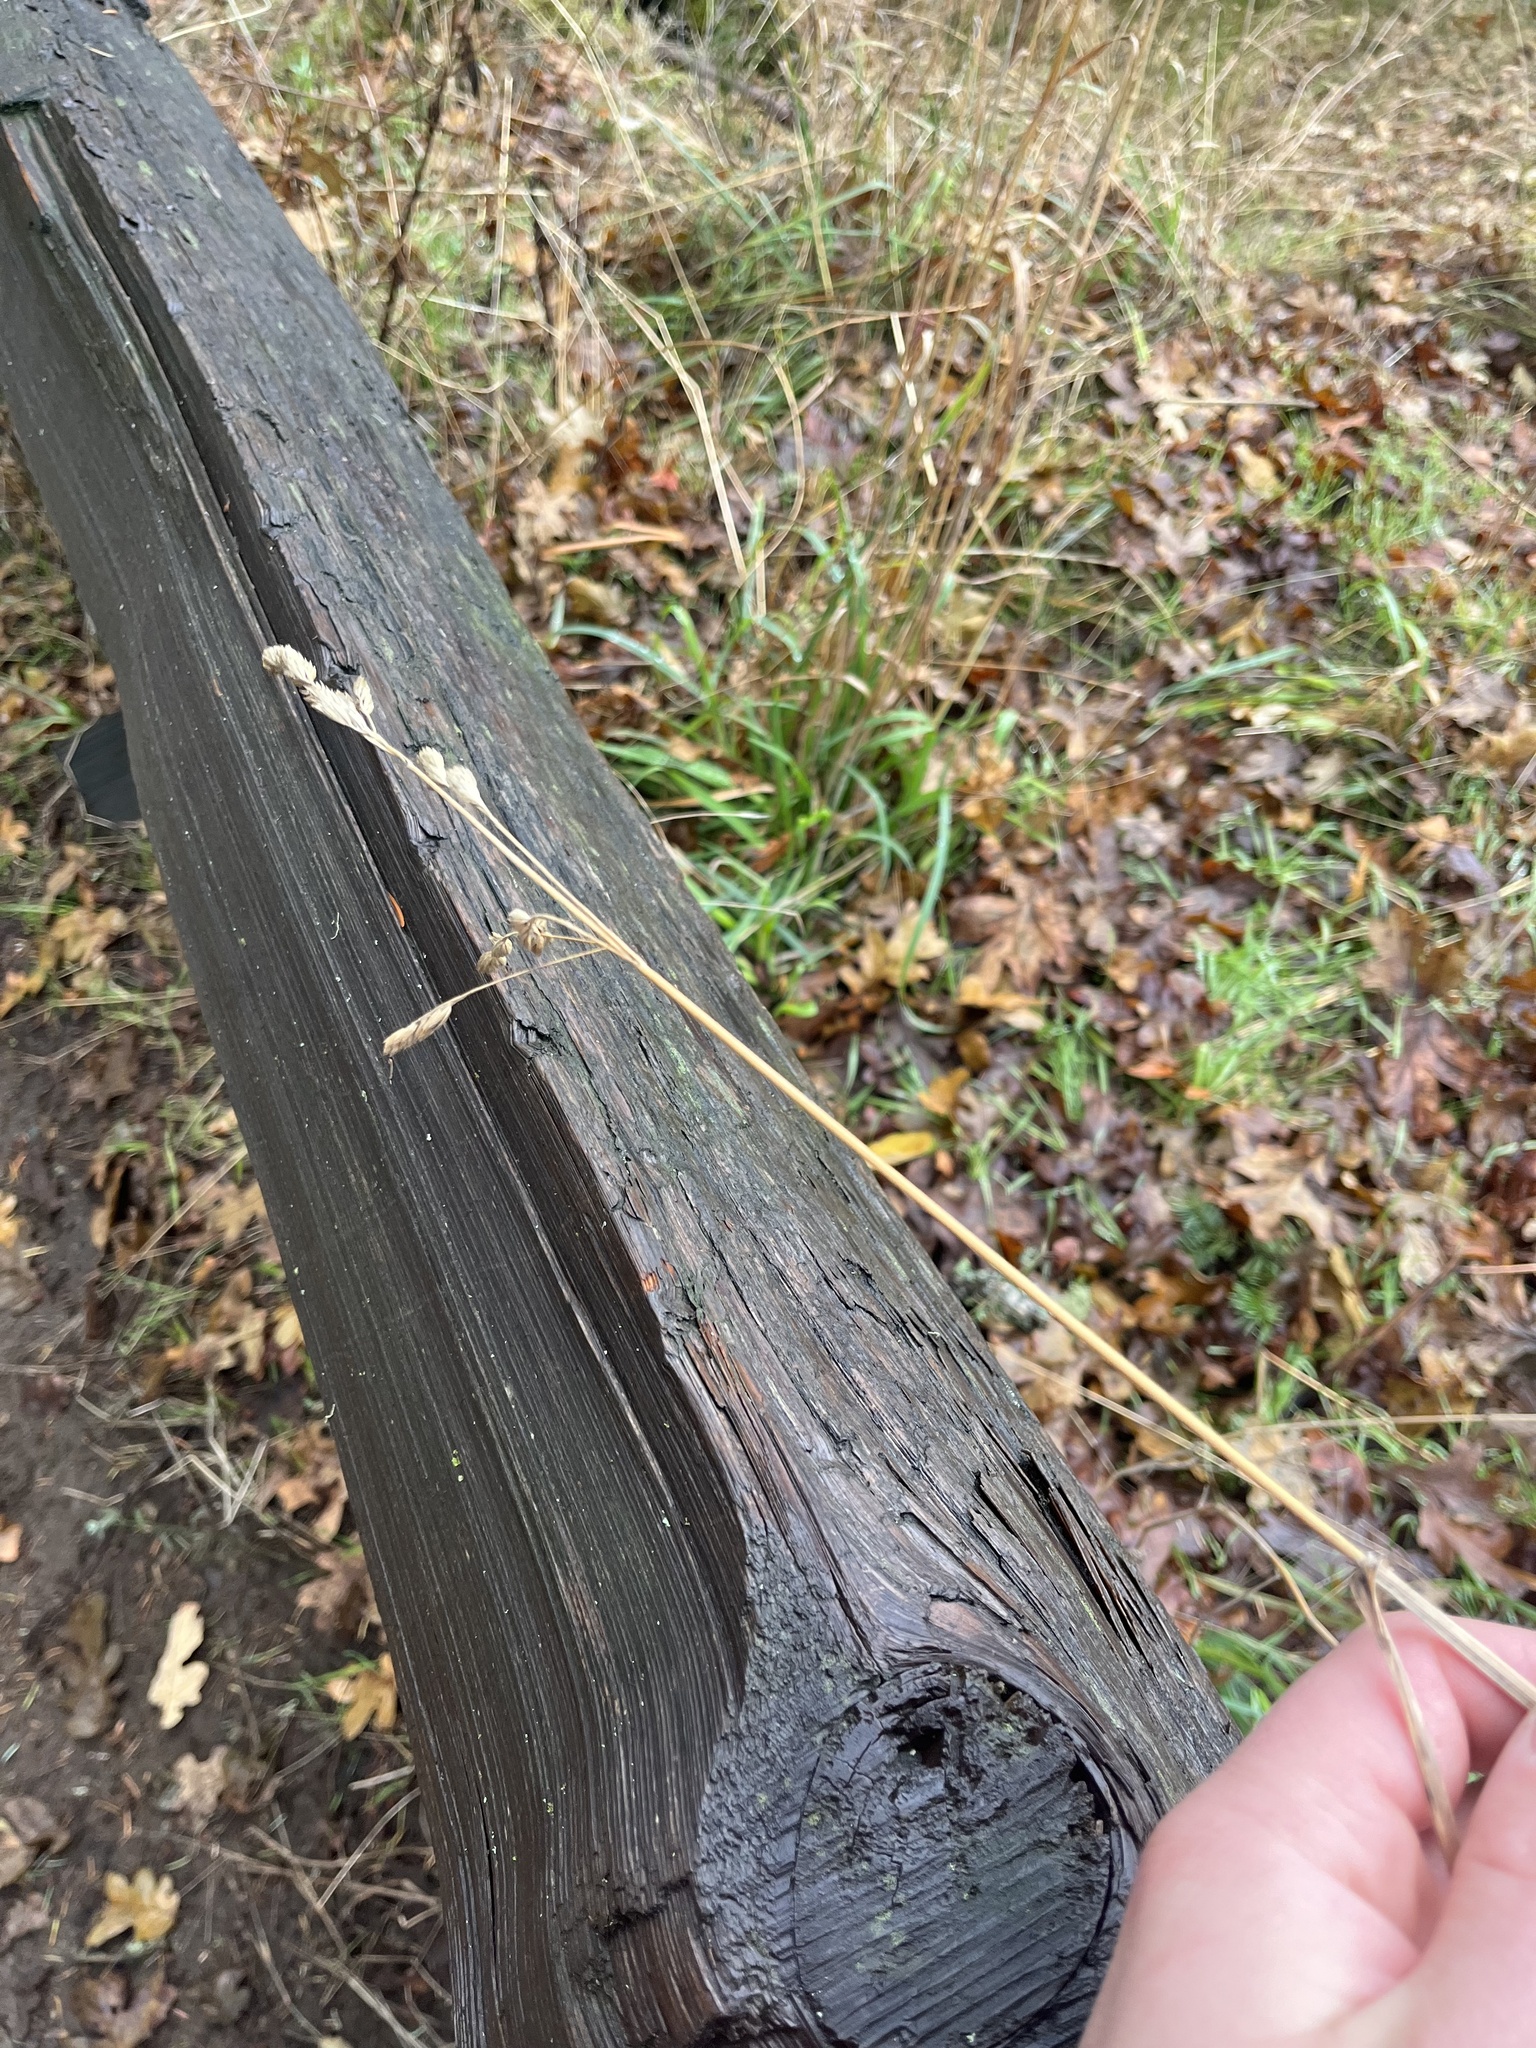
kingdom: Plantae
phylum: Tracheophyta
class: Liliopsida
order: Poales
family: Poaceae
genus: Dactylis
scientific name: Dactylis glomerata
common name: Orchardgrass
